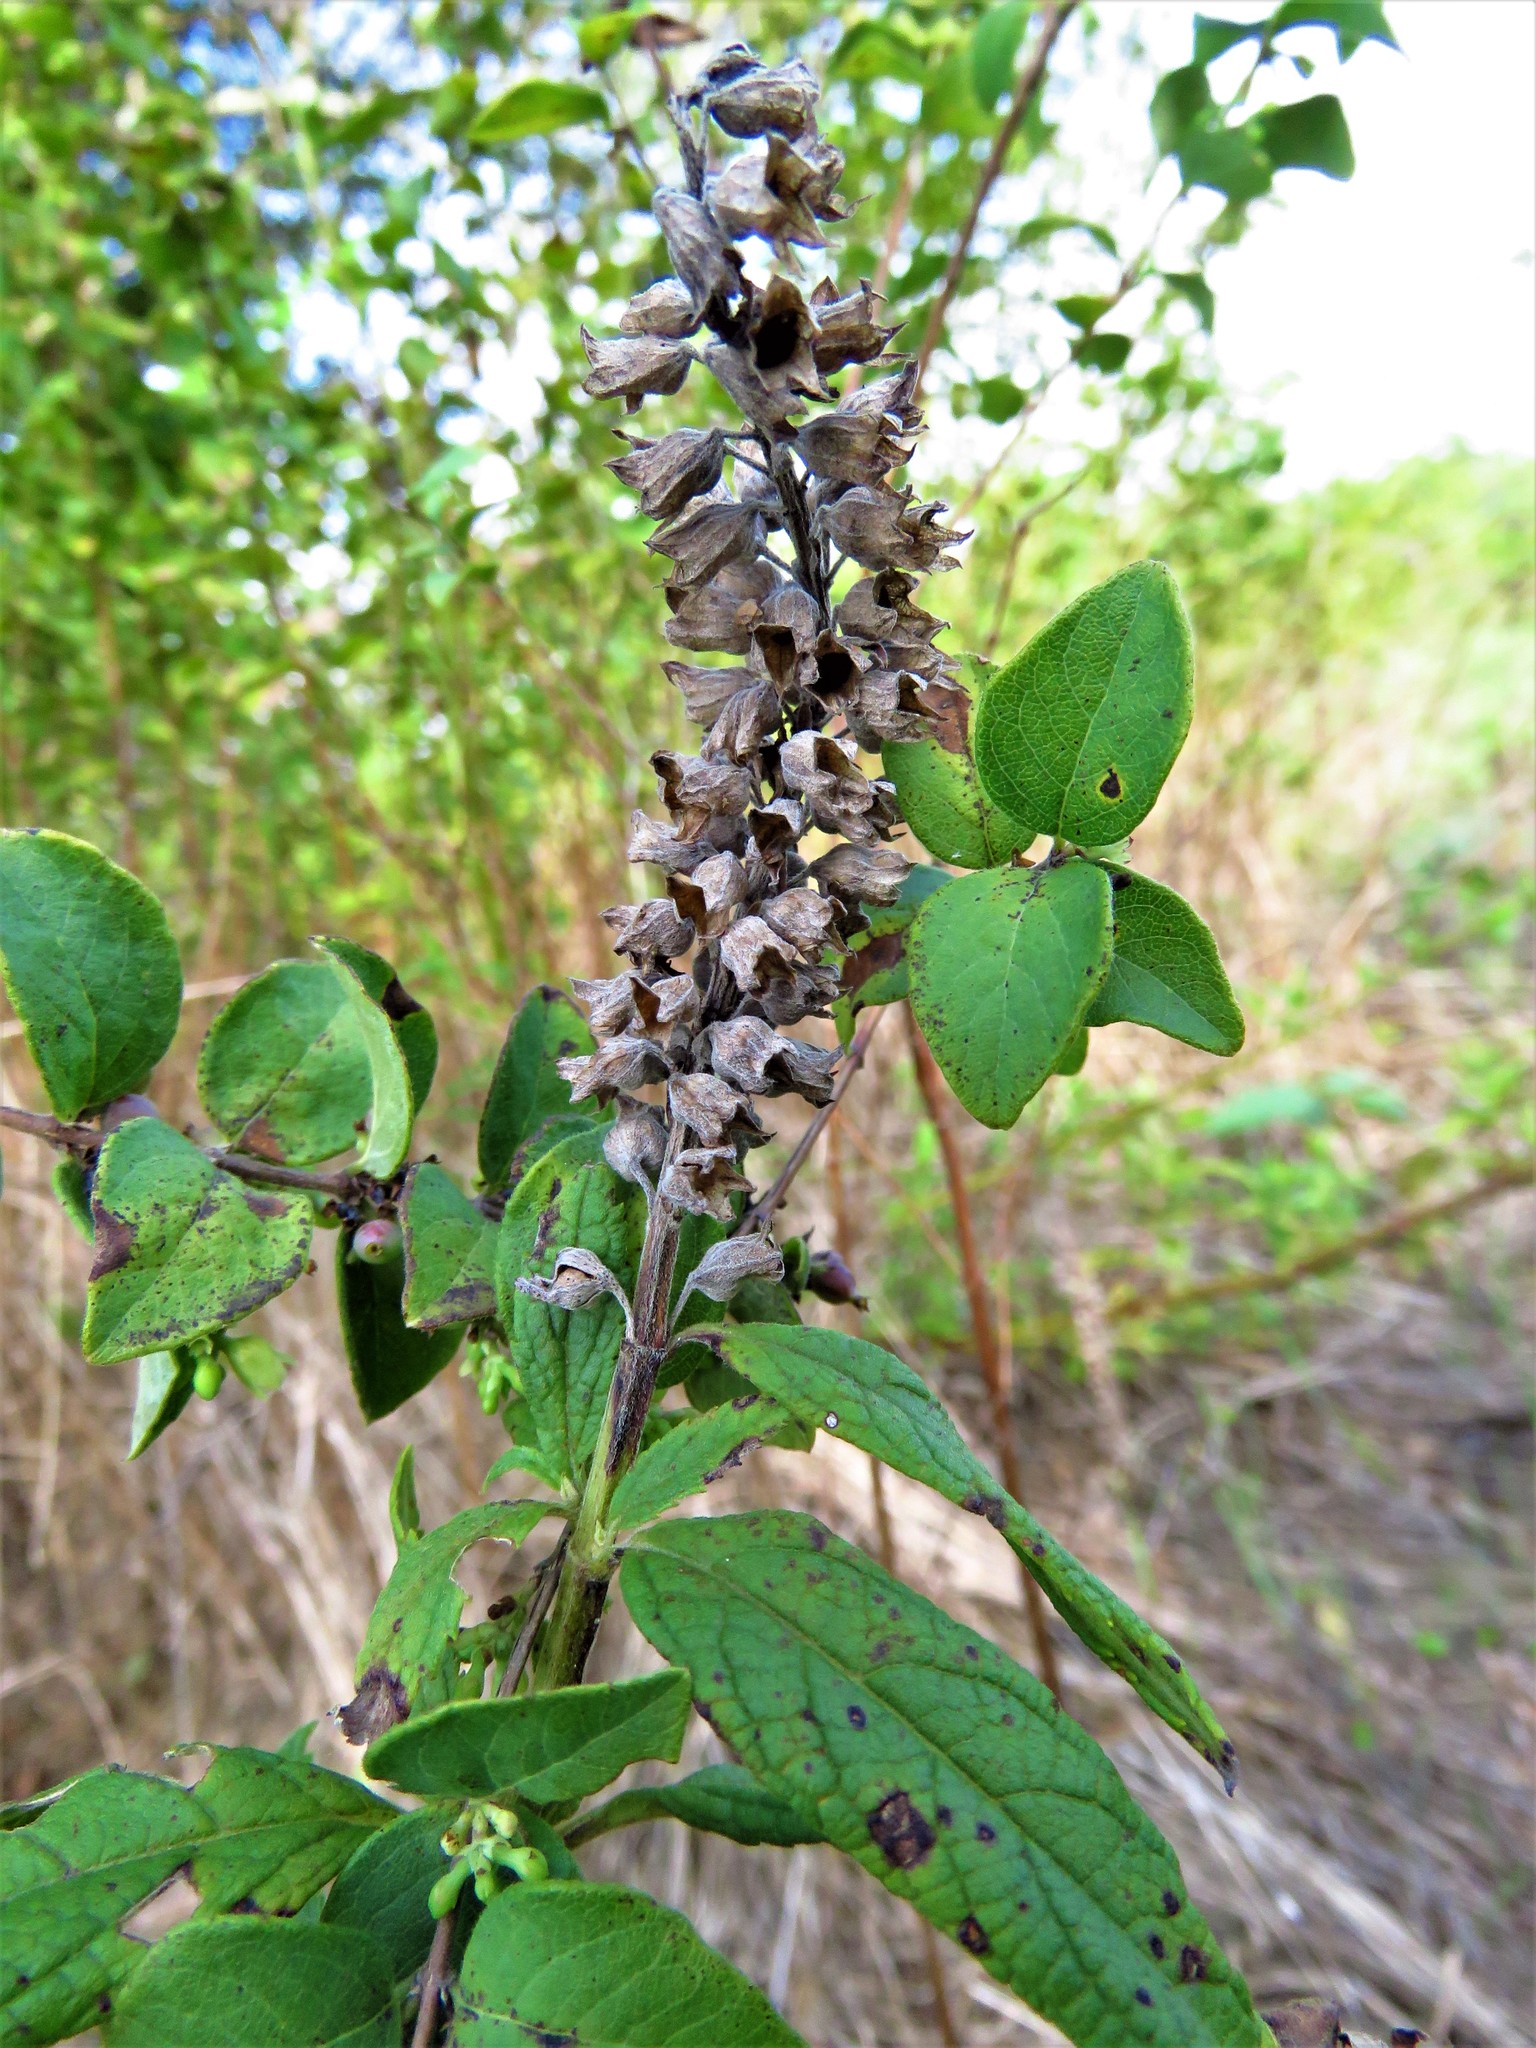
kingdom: Plantae
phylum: Tracheophyta
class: Magnoliopsida
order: Lamiales
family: Lamiaceae
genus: Teucrium
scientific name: Teucrium canadense
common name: American germander
